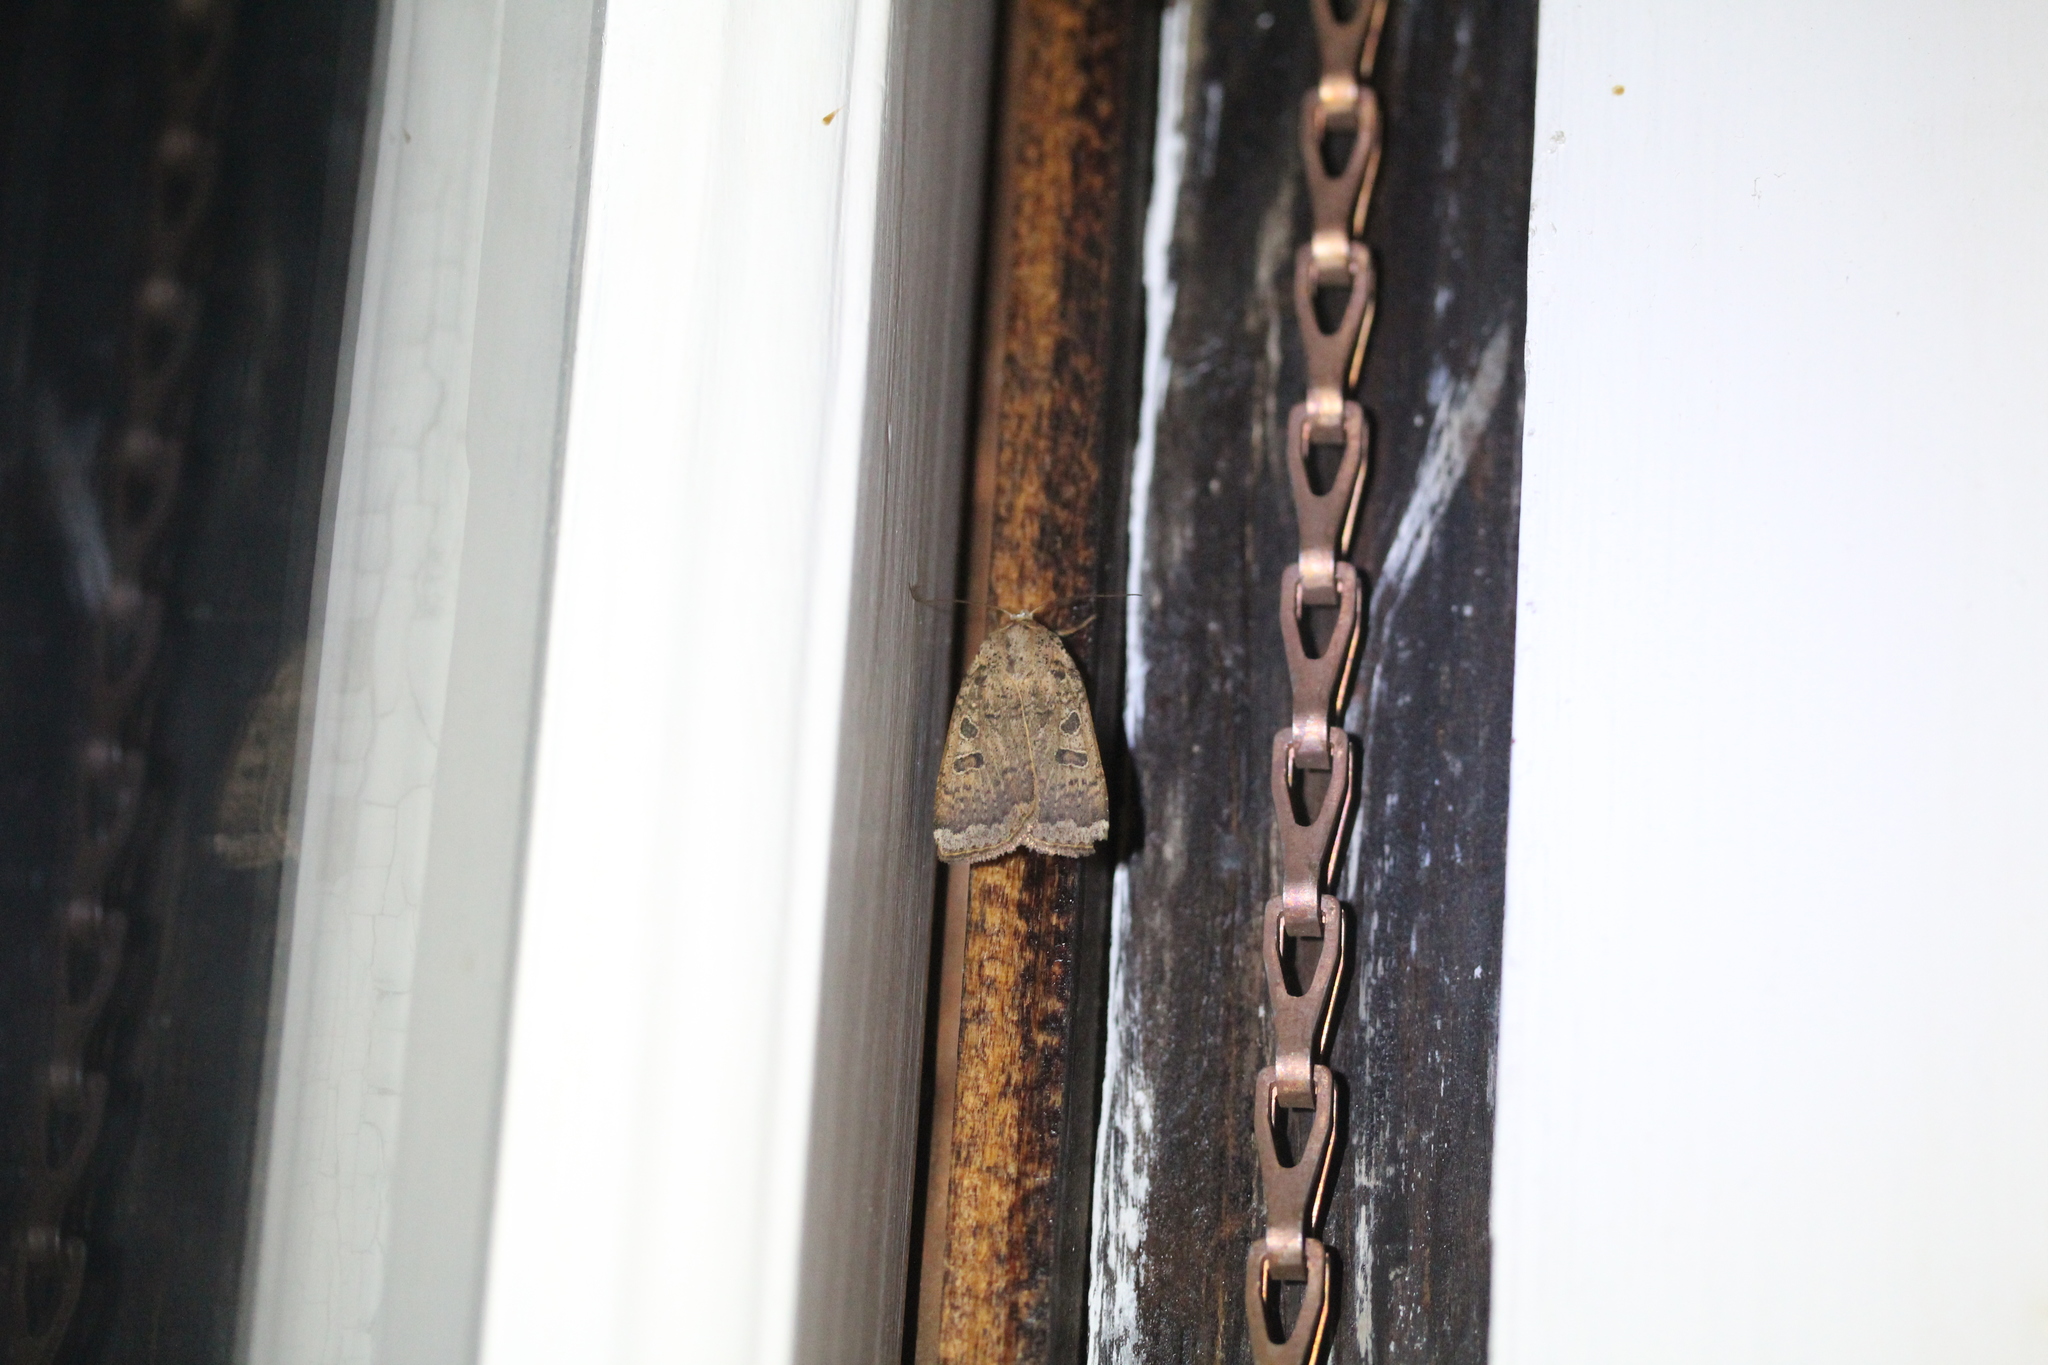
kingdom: Animalia
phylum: Arthropoda
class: Insecta
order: Lepidoptera
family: Noctuidae
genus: Abagrotis
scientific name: Abagrotis alternata
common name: Greater red dart
